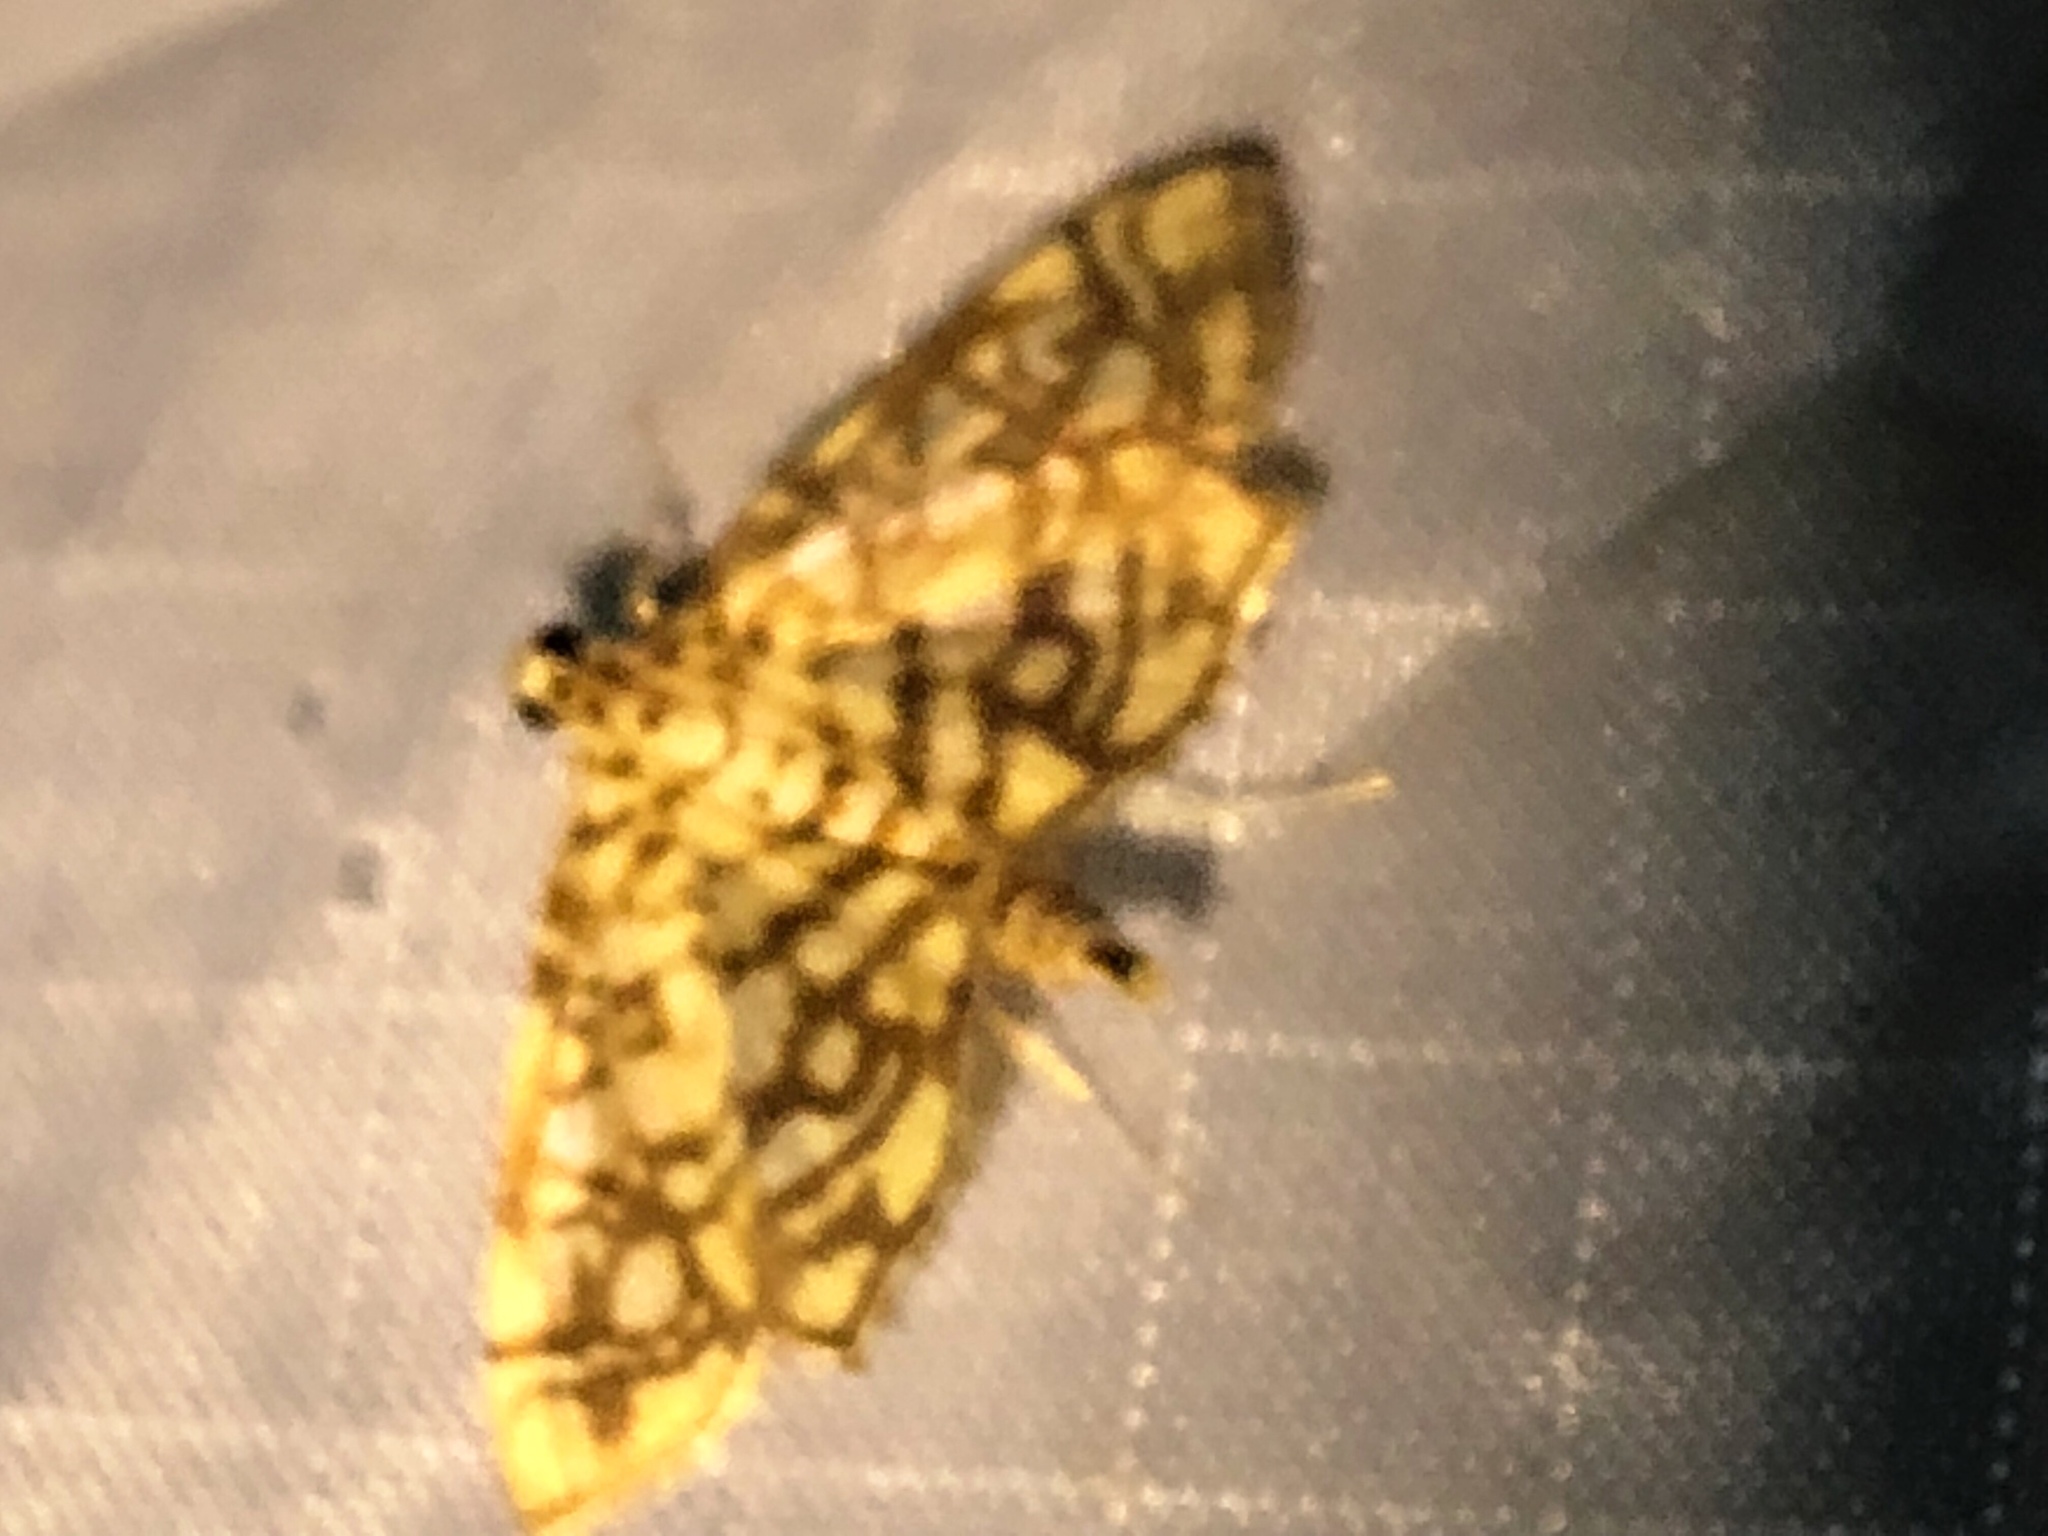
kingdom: Animalia
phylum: Arthropoda
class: Insecta
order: Lepidoptera
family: Crambidae
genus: Lygropia
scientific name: Lygropia rivulalis
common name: Bog lygropia moth
